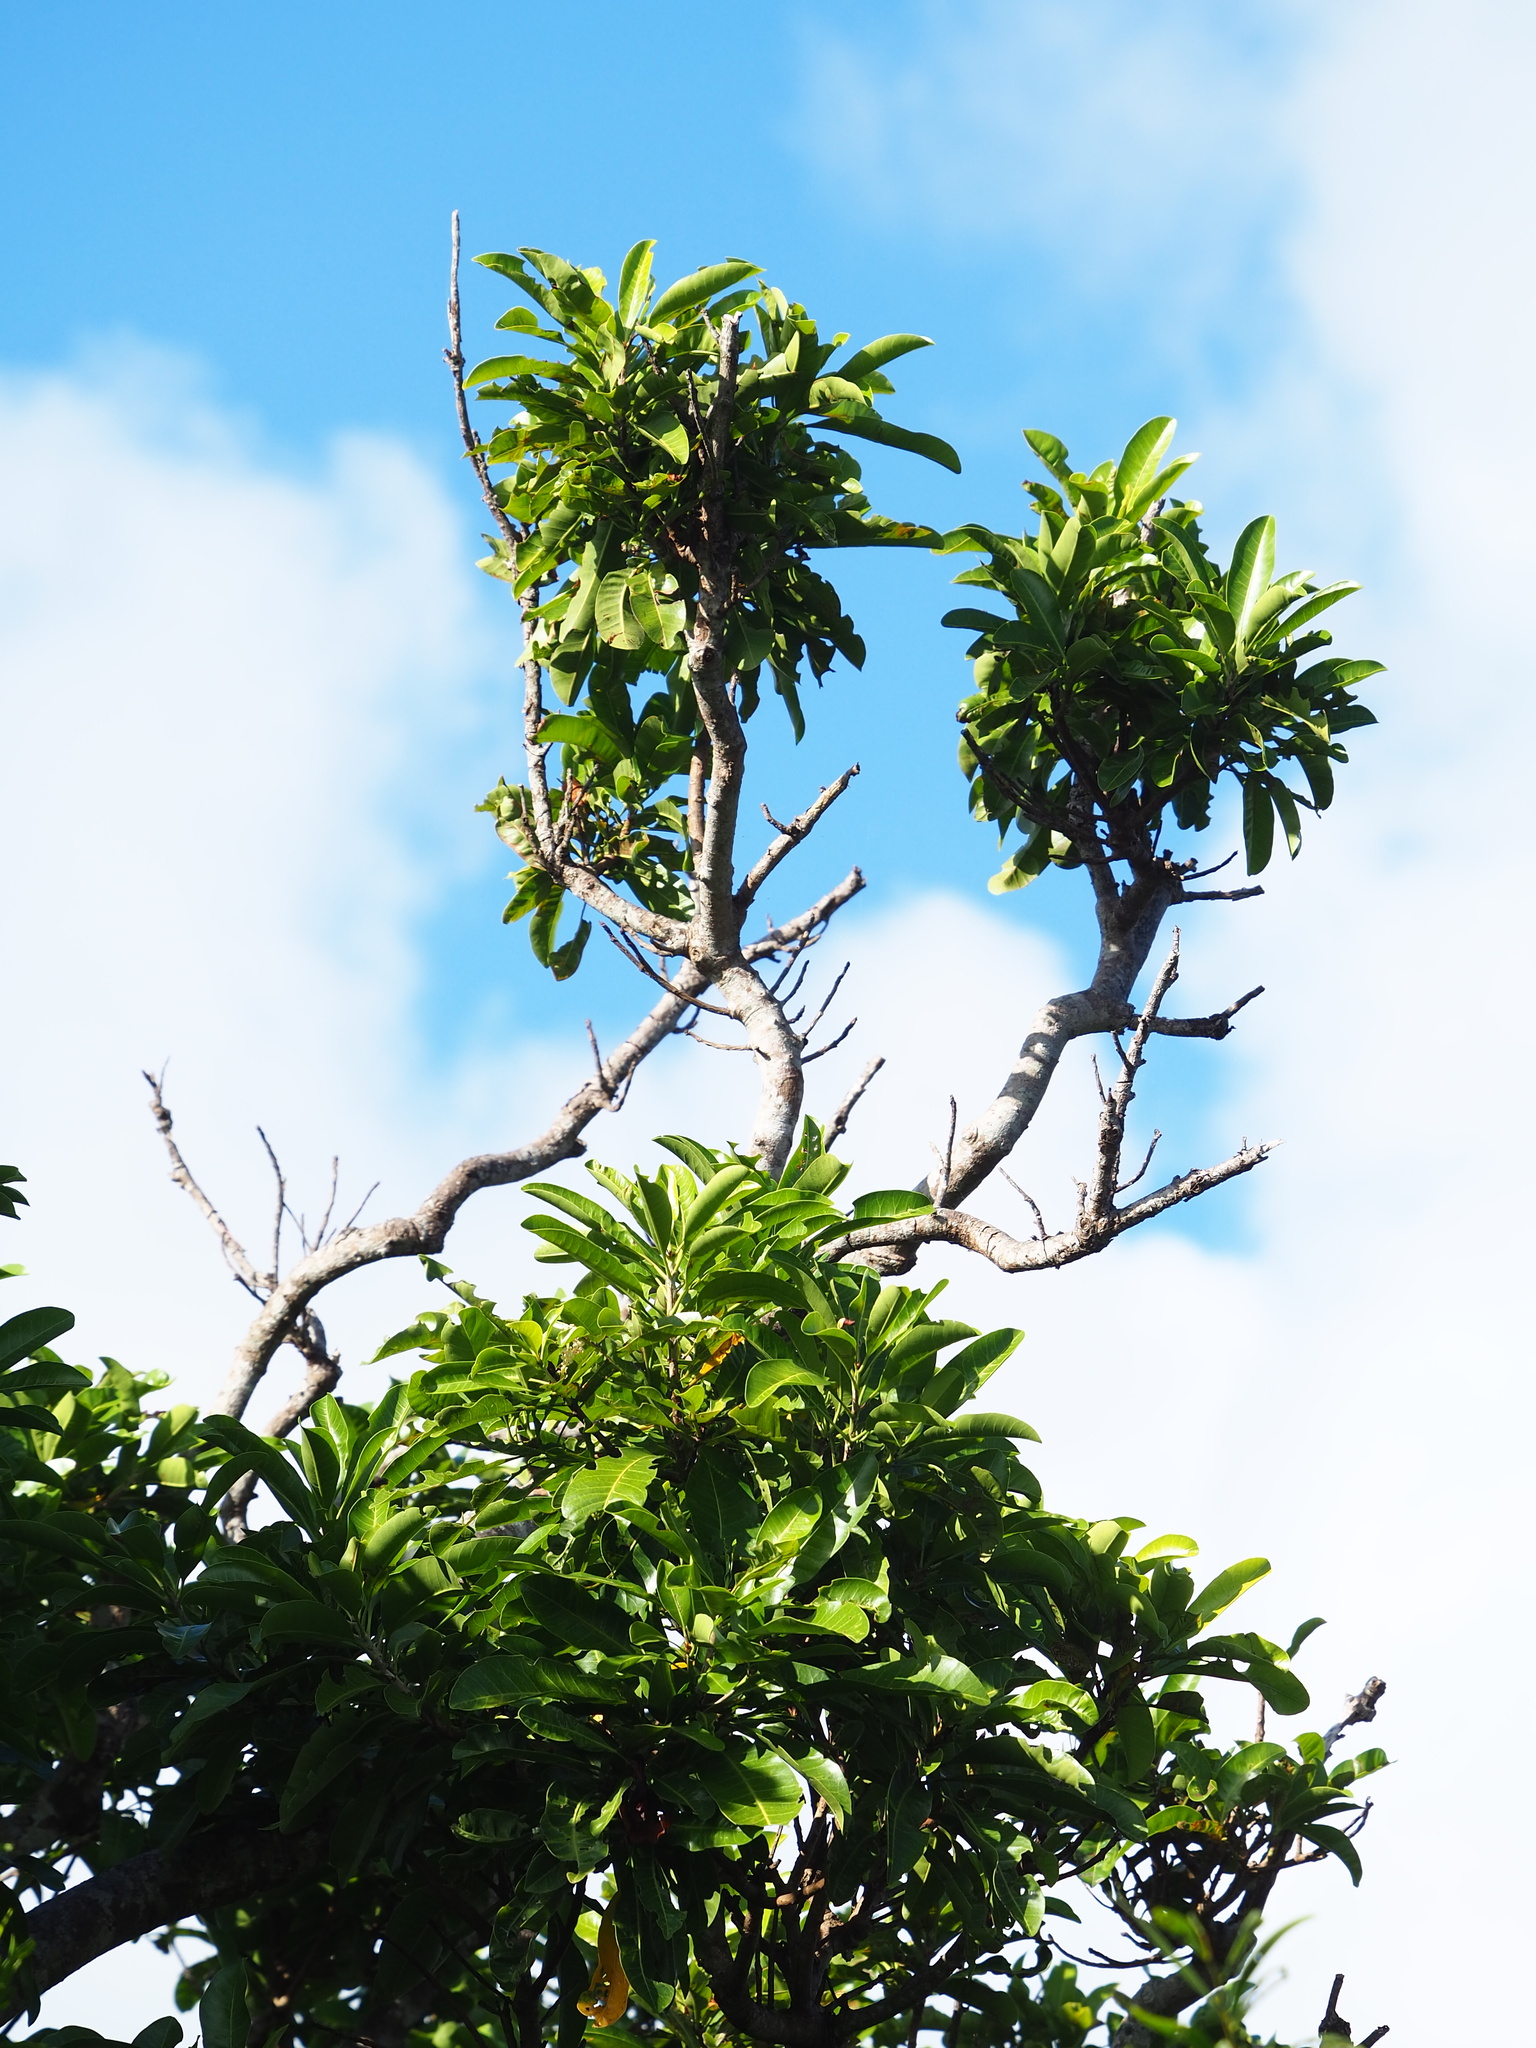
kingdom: Plantae
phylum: Tracheophyta
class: Magnoliopsida
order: Sapindales
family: Anacardiaceae
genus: Buchanania
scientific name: Buchanania arborescens
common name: Sparrow’s mango
